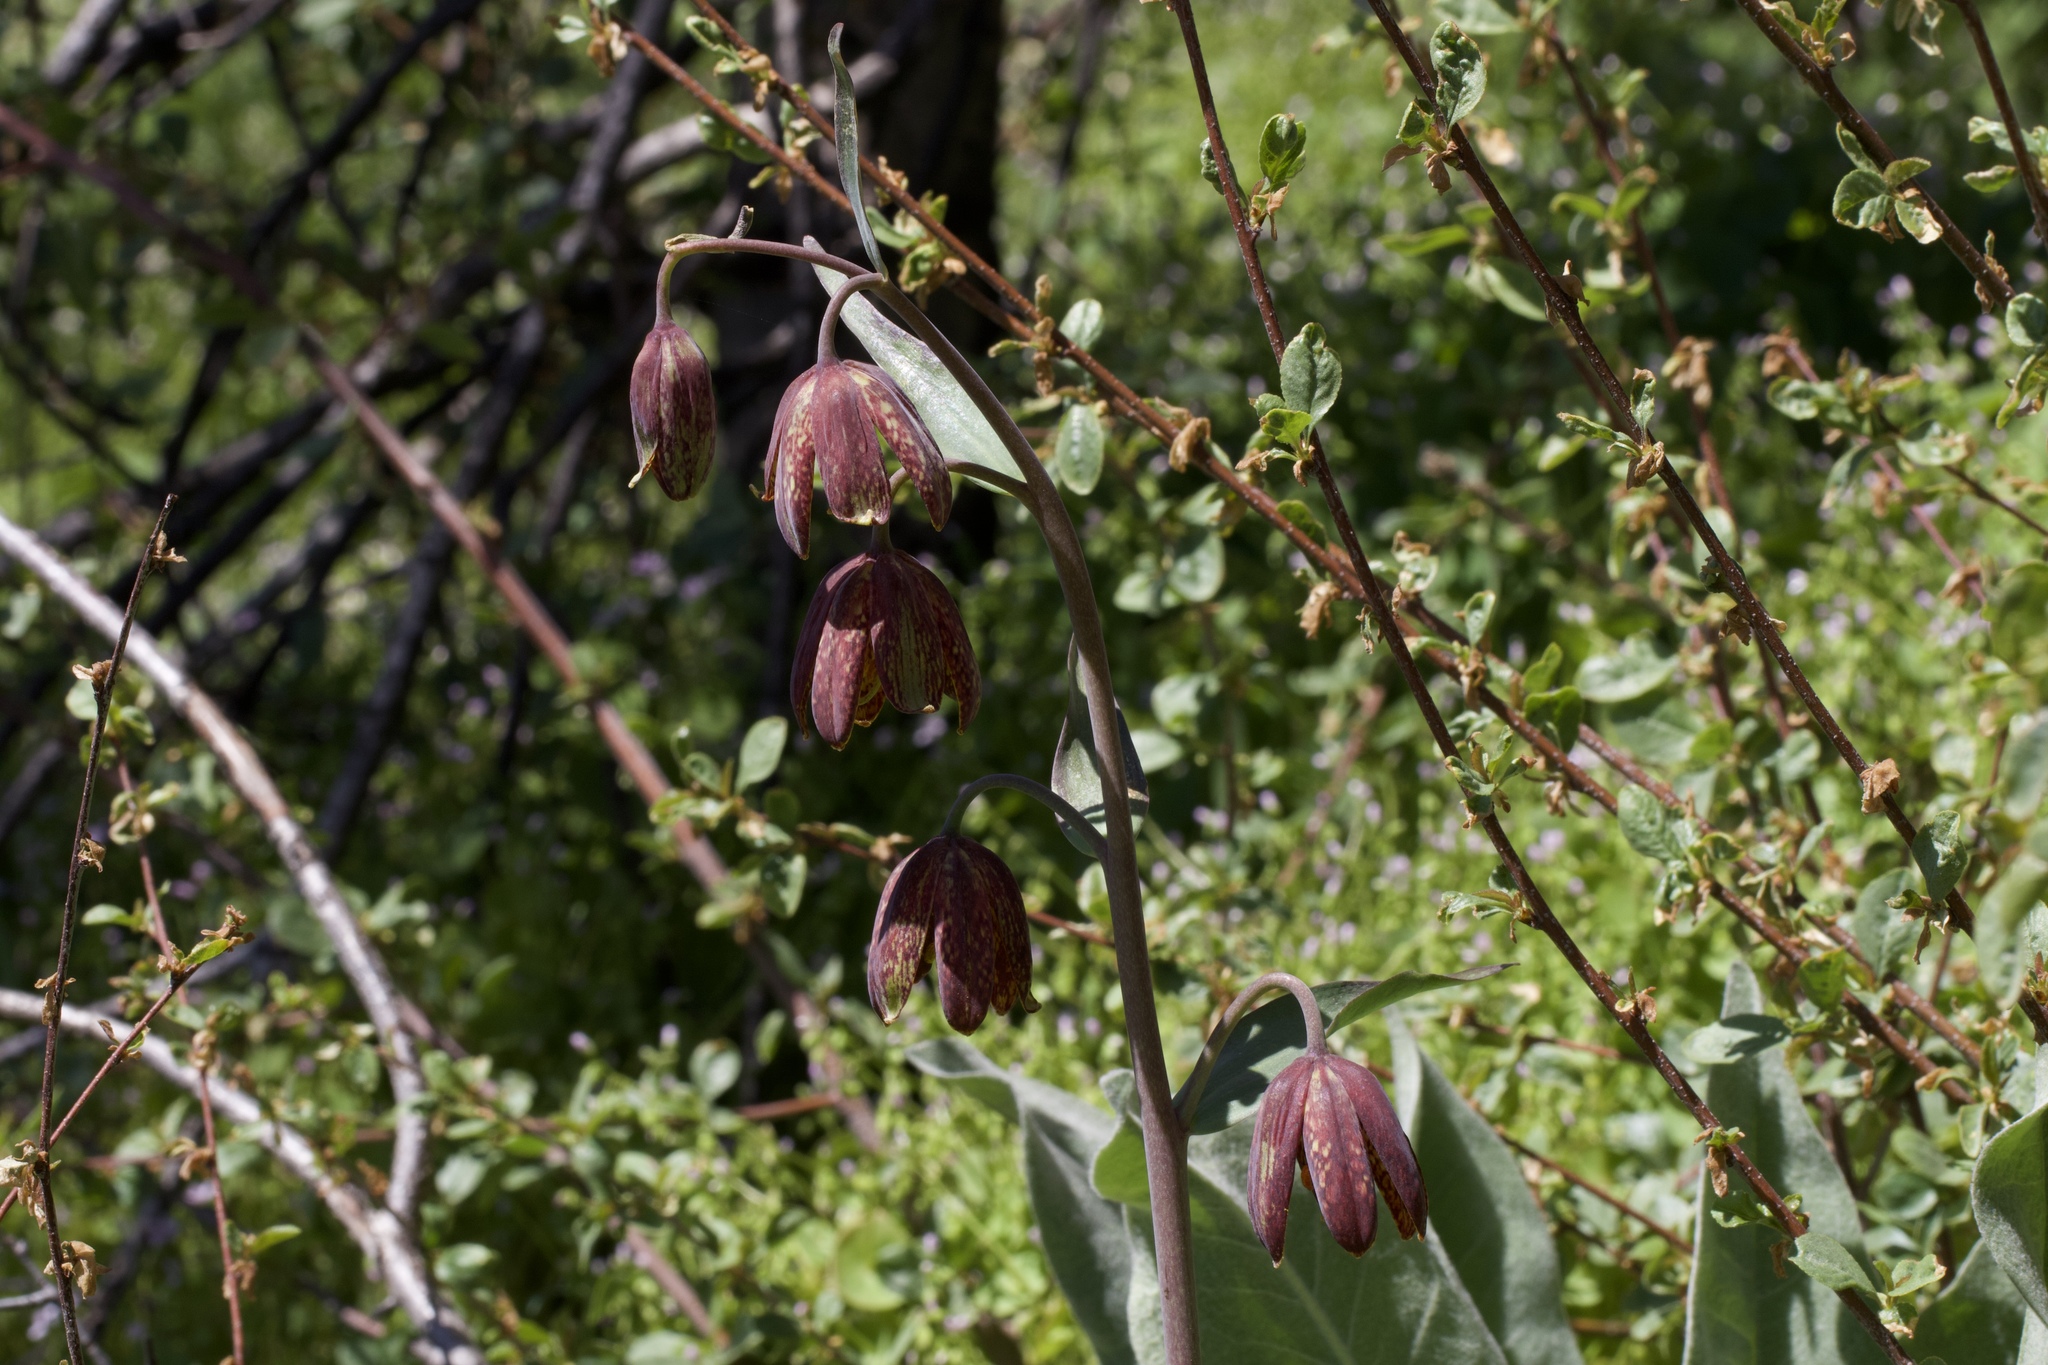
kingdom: Plantae
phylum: Tracheophyta
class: Liliopsida
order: Liliales
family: Liliaceae
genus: Fritillaria
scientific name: Fritillaria affinis
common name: Ojai fritillary
